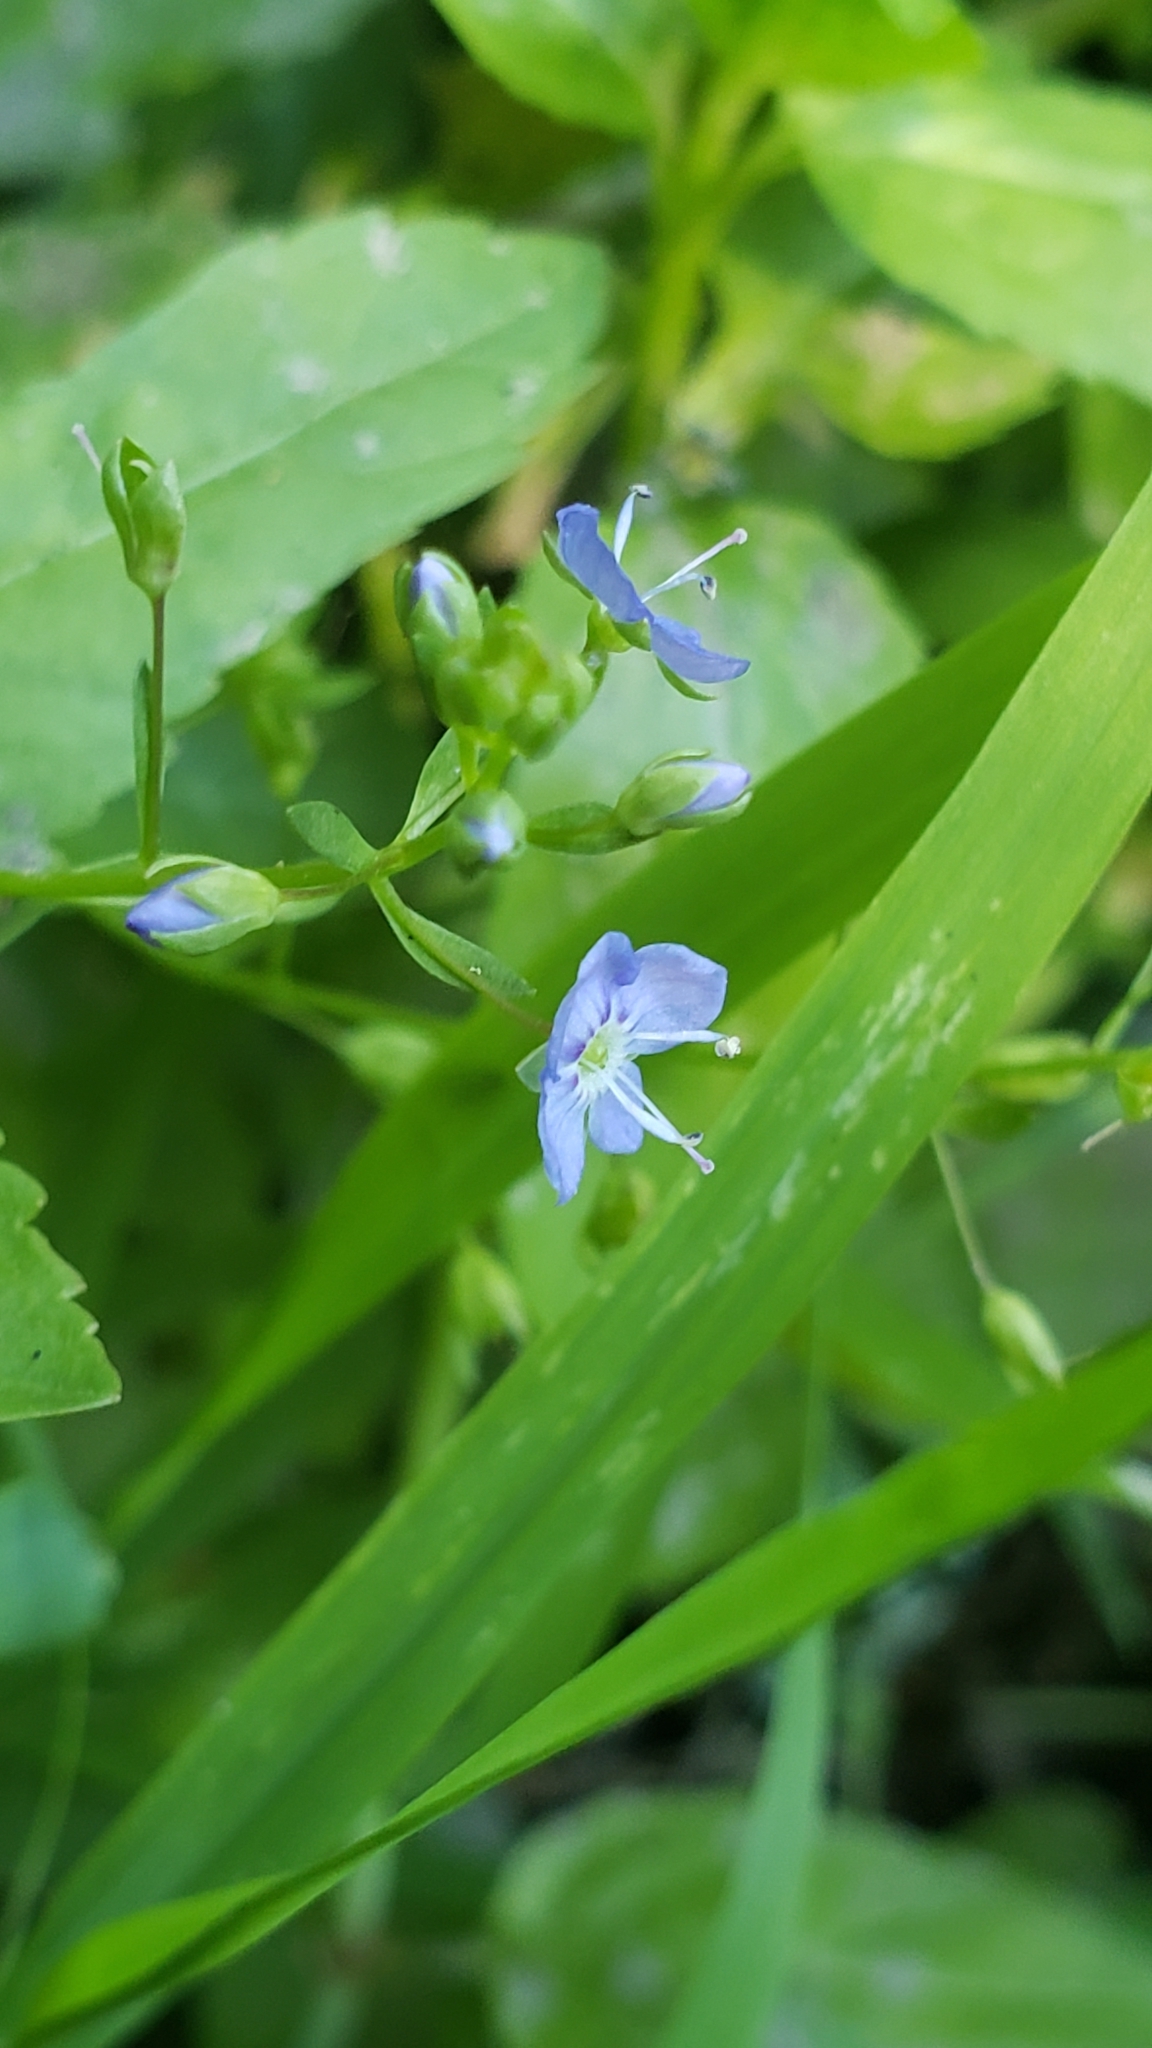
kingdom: Plantae
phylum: Tracheophyta
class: Magnoliopsida
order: Lamiales
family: Plantaginaceae
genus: Veronica
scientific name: Veronica americana
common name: American brooklime
